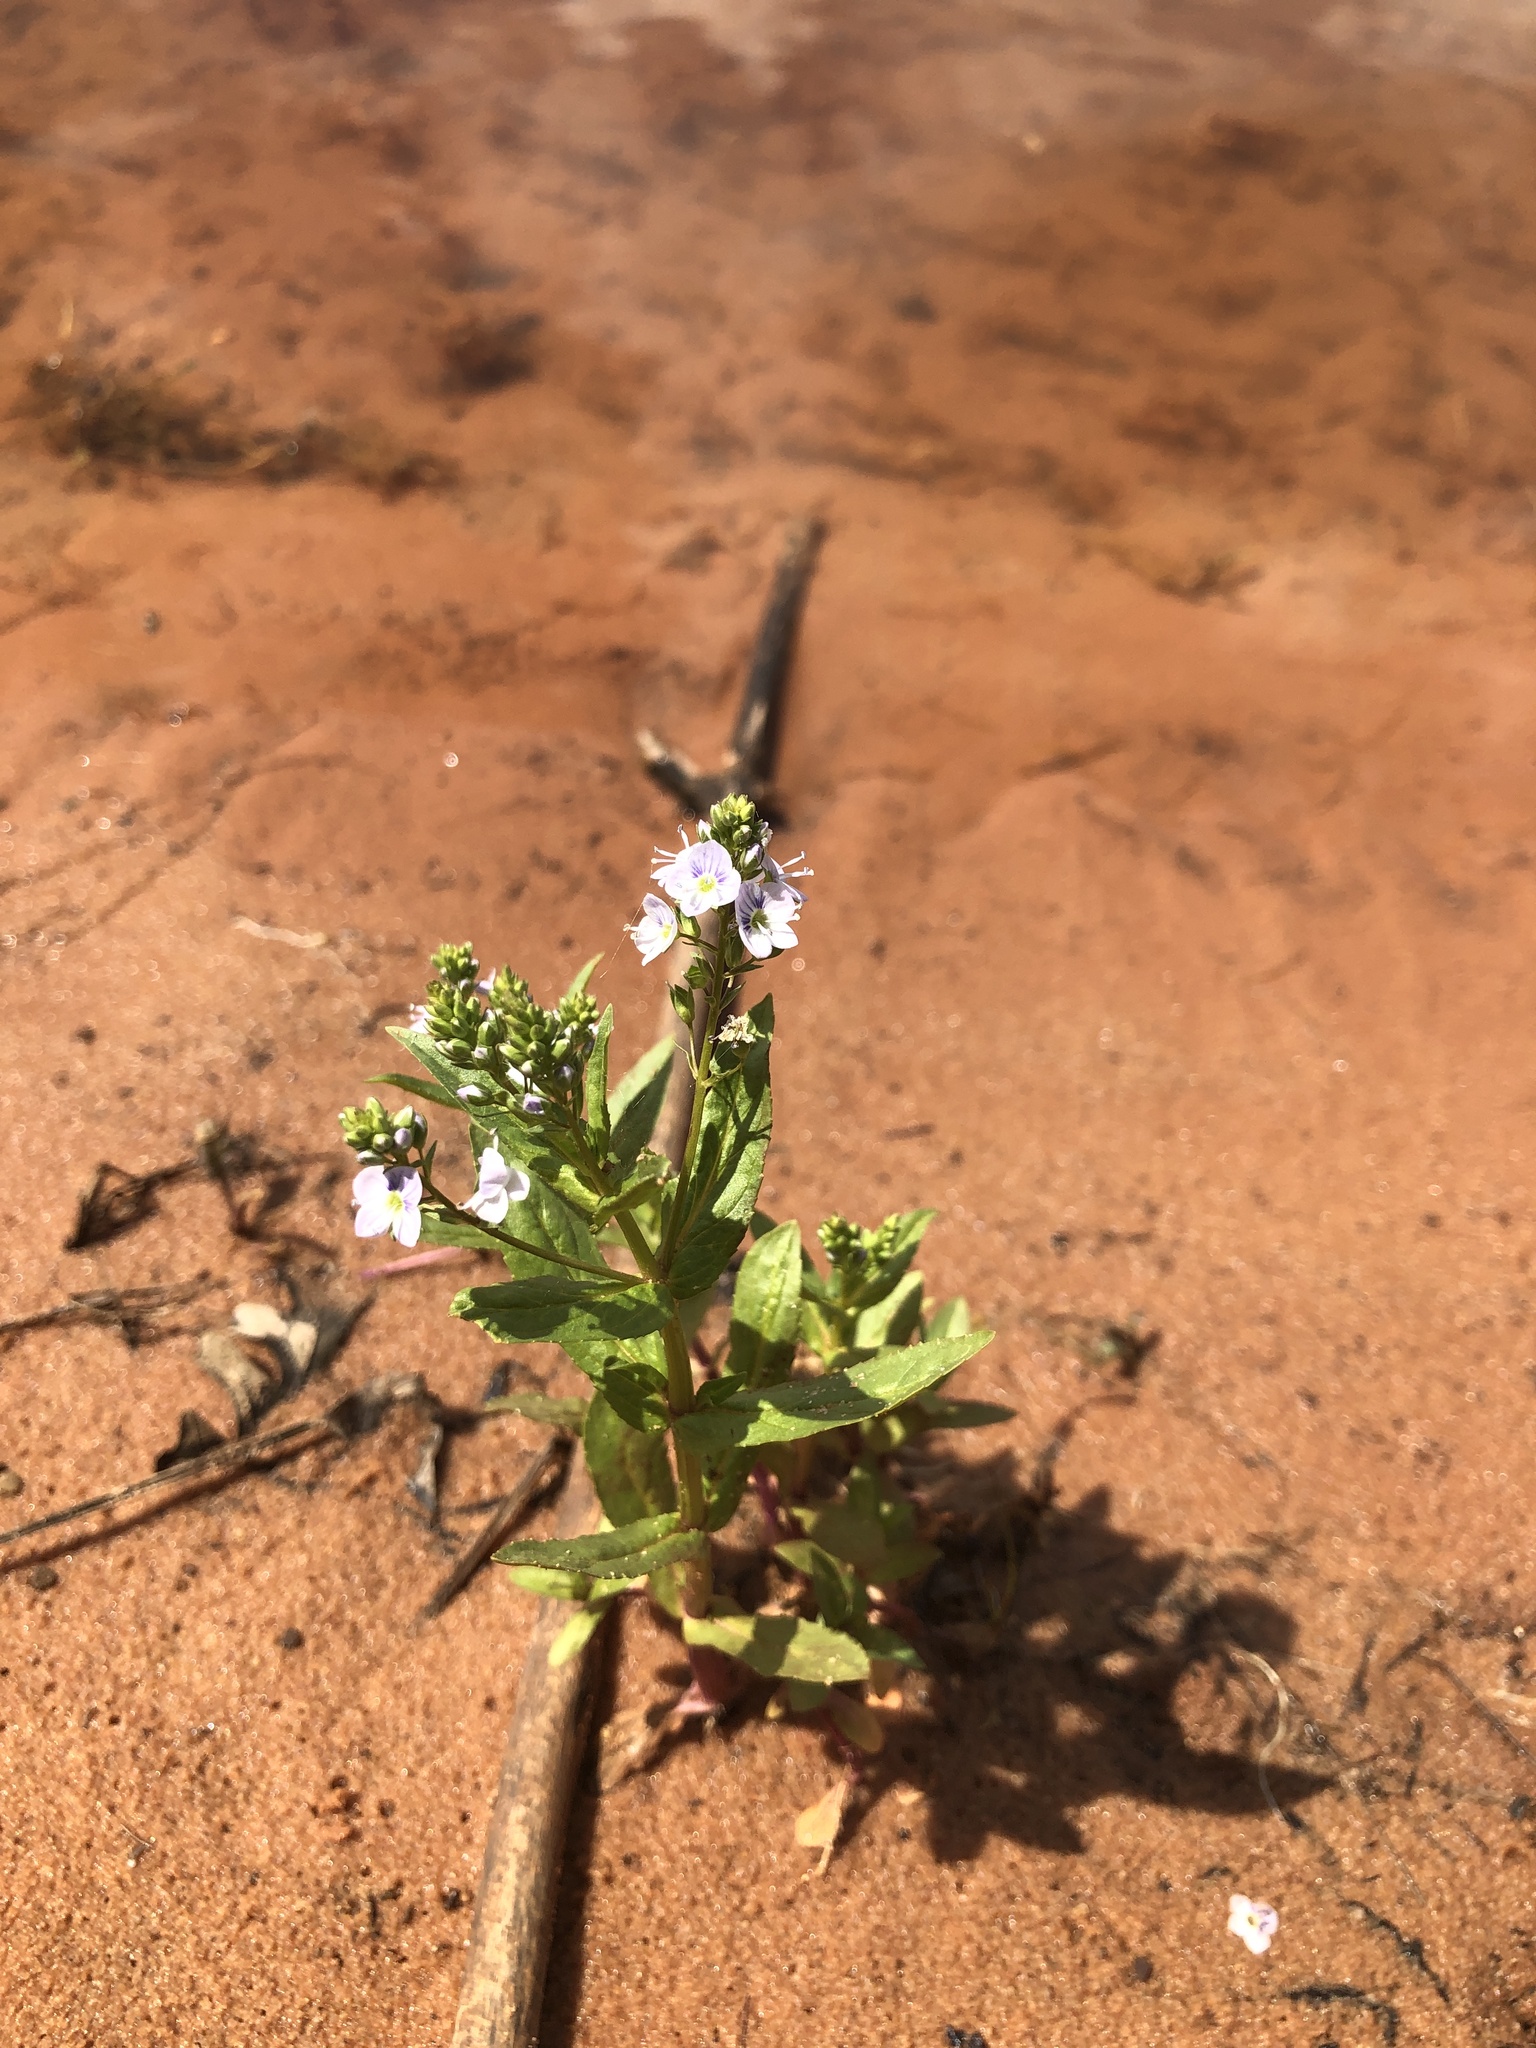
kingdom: Plantae
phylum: Tracheophyta
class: Magnoliopsida
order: Lamiales
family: Plantaginaceae
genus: Veronica
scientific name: Veronica anagallis-aquatica
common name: Water speedwell
